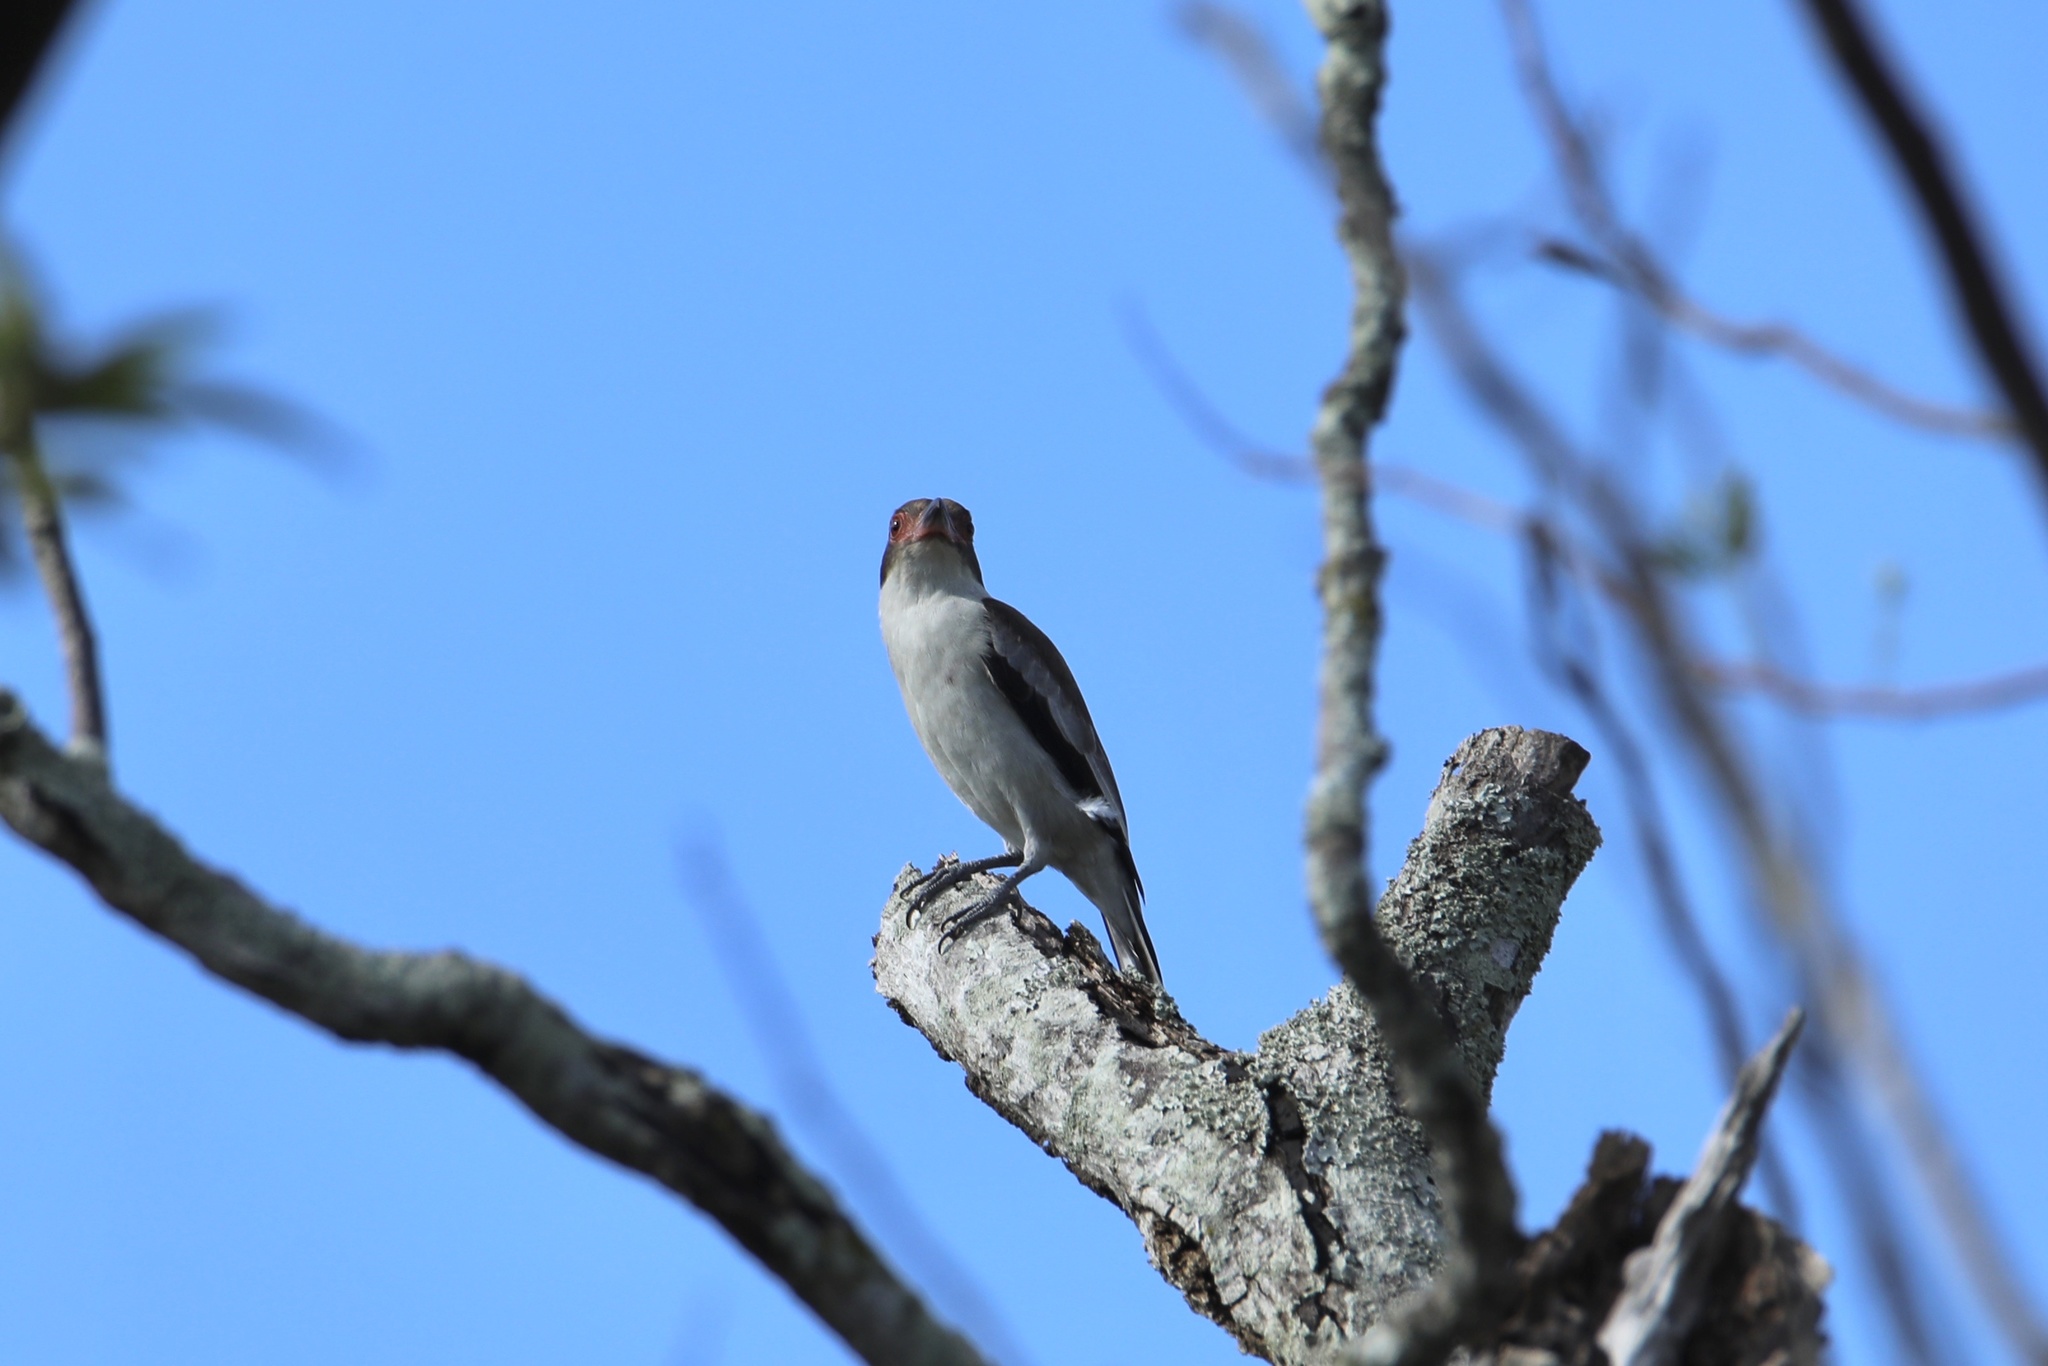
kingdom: Animalia
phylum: Chordata
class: Aves
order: Passeriformes
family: Cotingidae
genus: Tityra
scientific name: Tityra semifasciata
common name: Masked tityra
